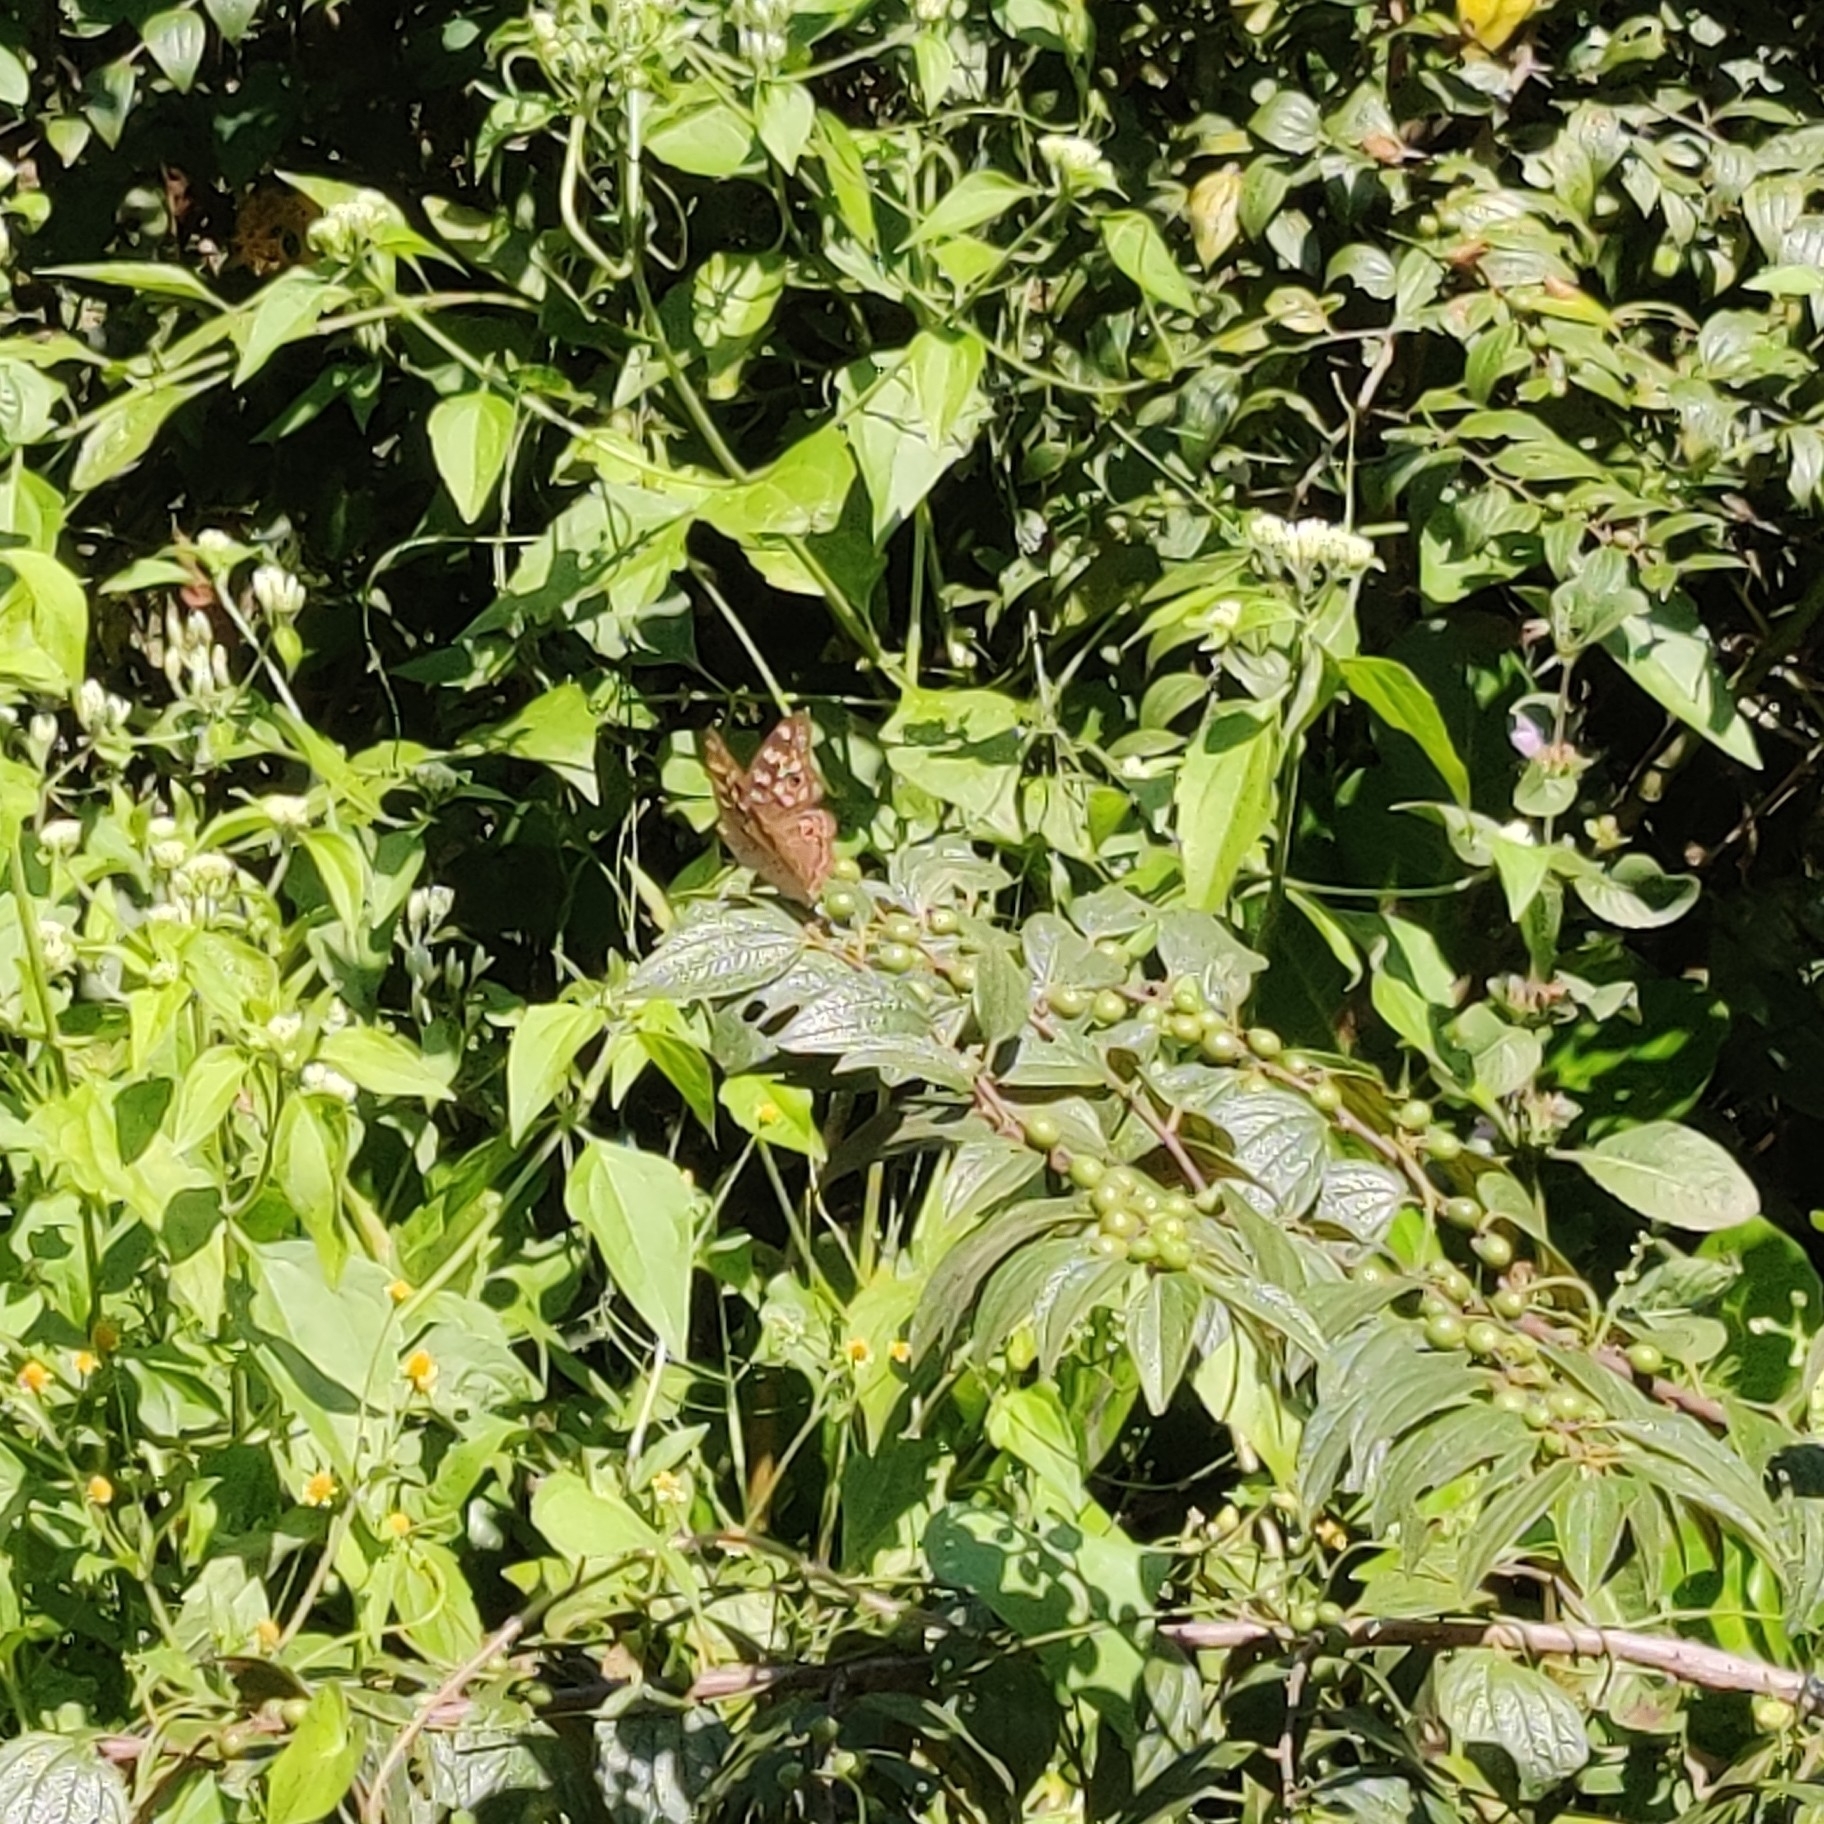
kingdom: Animalia
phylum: Arthropoda
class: Insecta
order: Lepidoptera
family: Nymphalidae
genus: Junonia
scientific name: Junonia lemonias
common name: Lemon pansy
